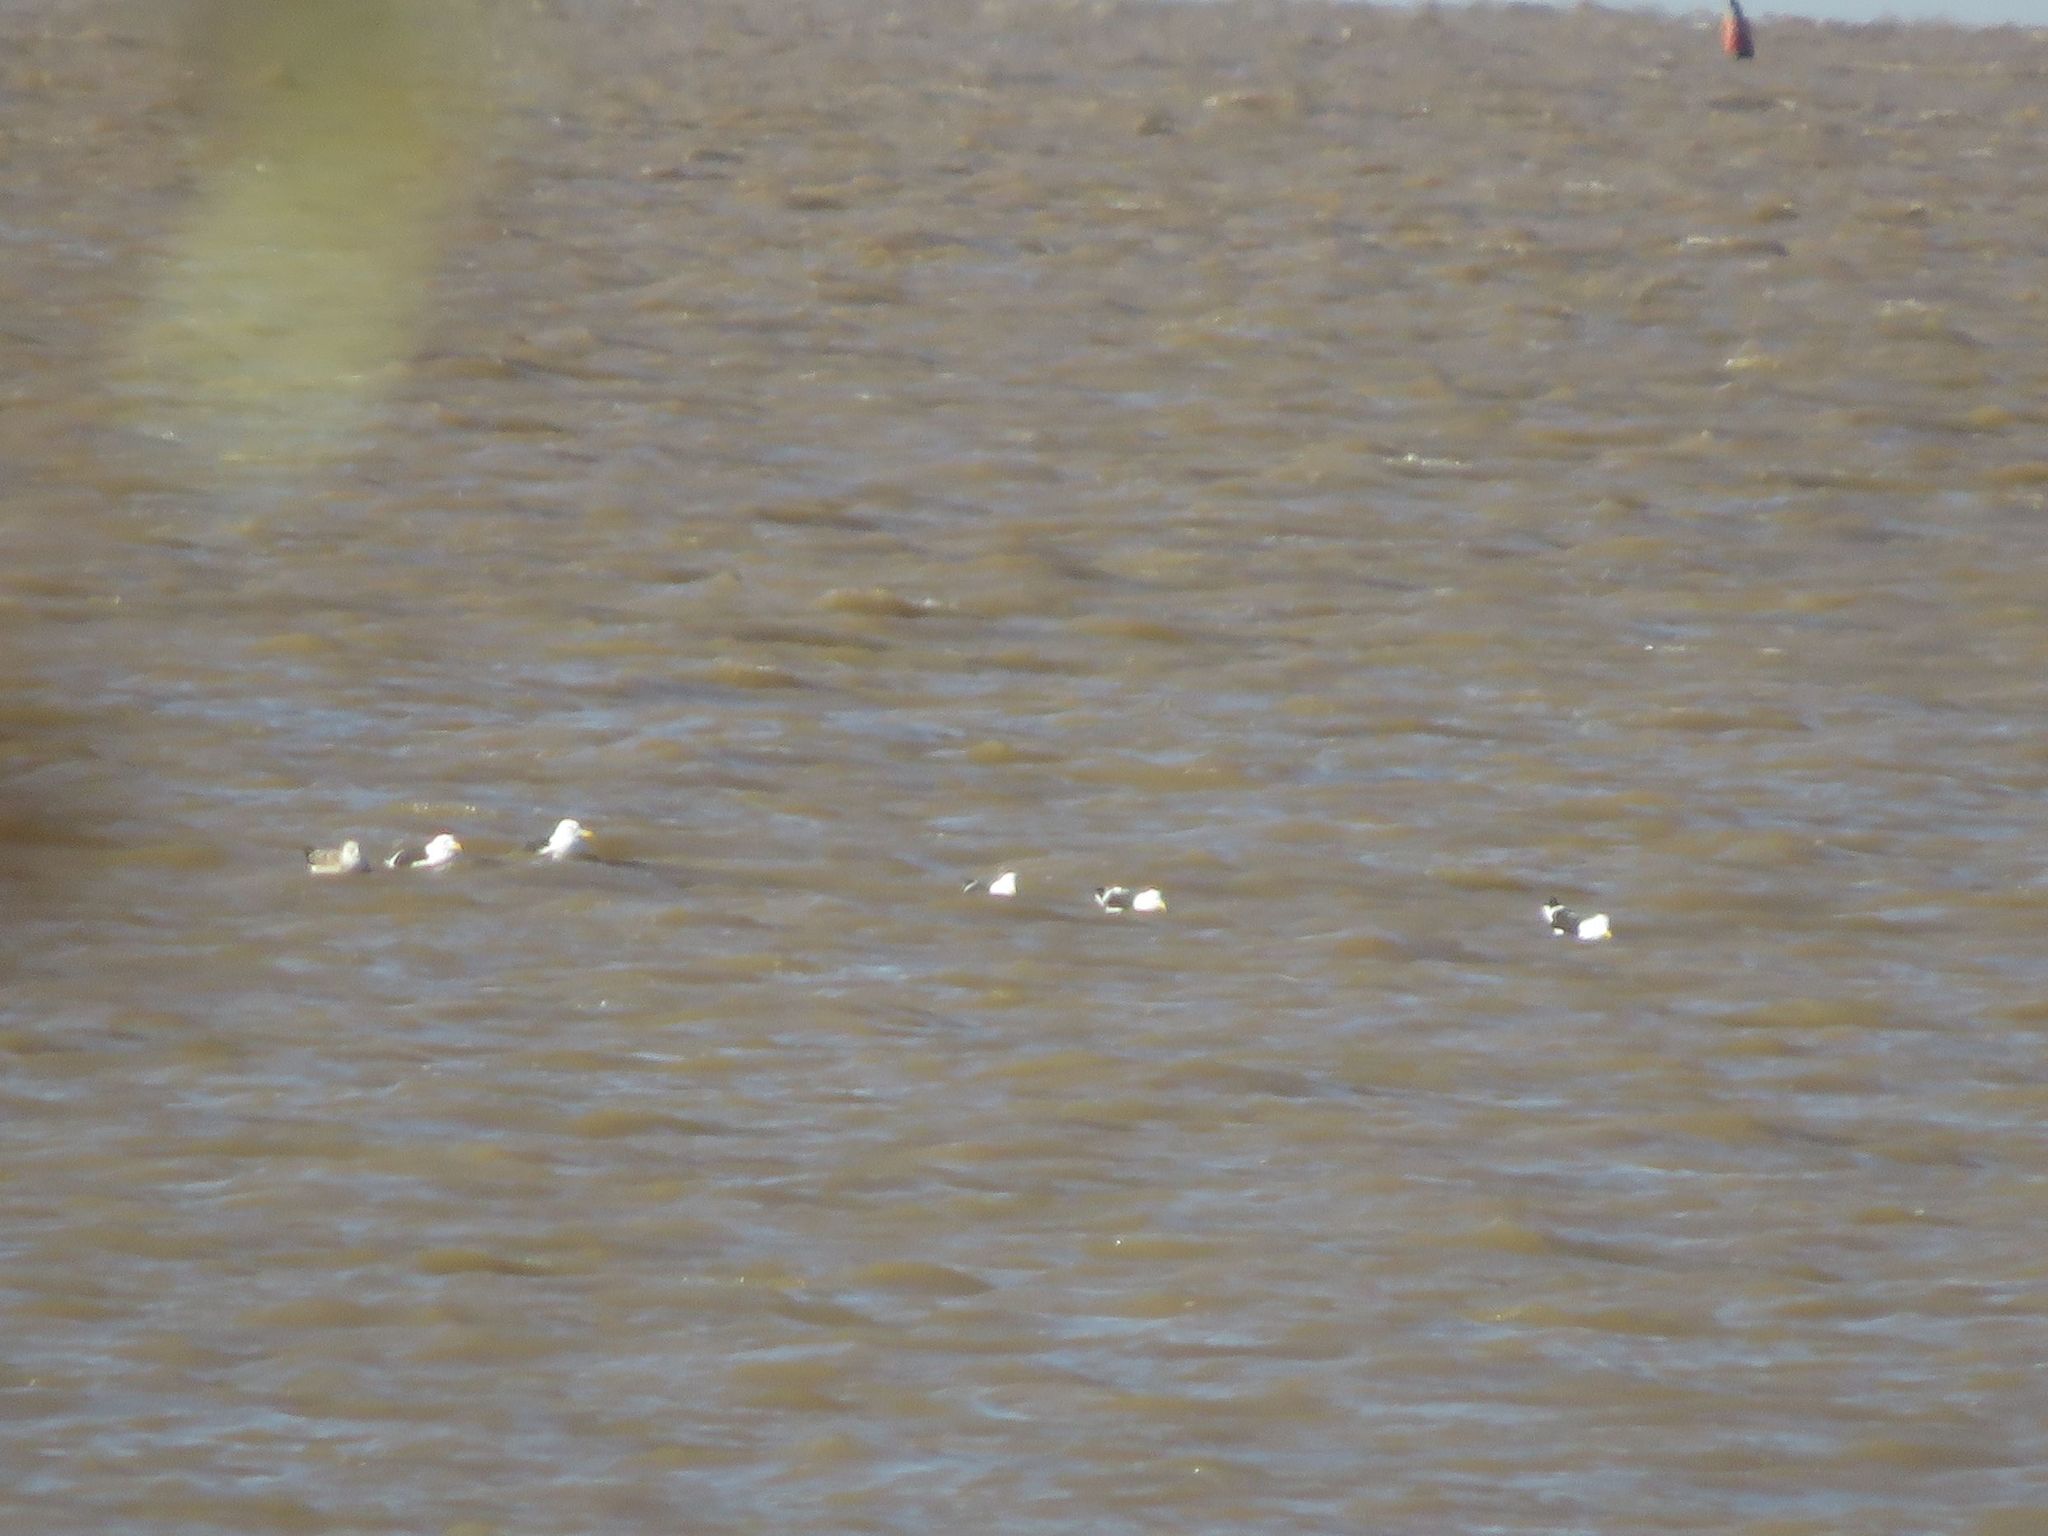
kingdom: Animalia
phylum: Chordata
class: Aves
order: Charadriiformes
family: Laridae
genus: Larus
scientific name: Larus dominicanus
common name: Kelp gull
